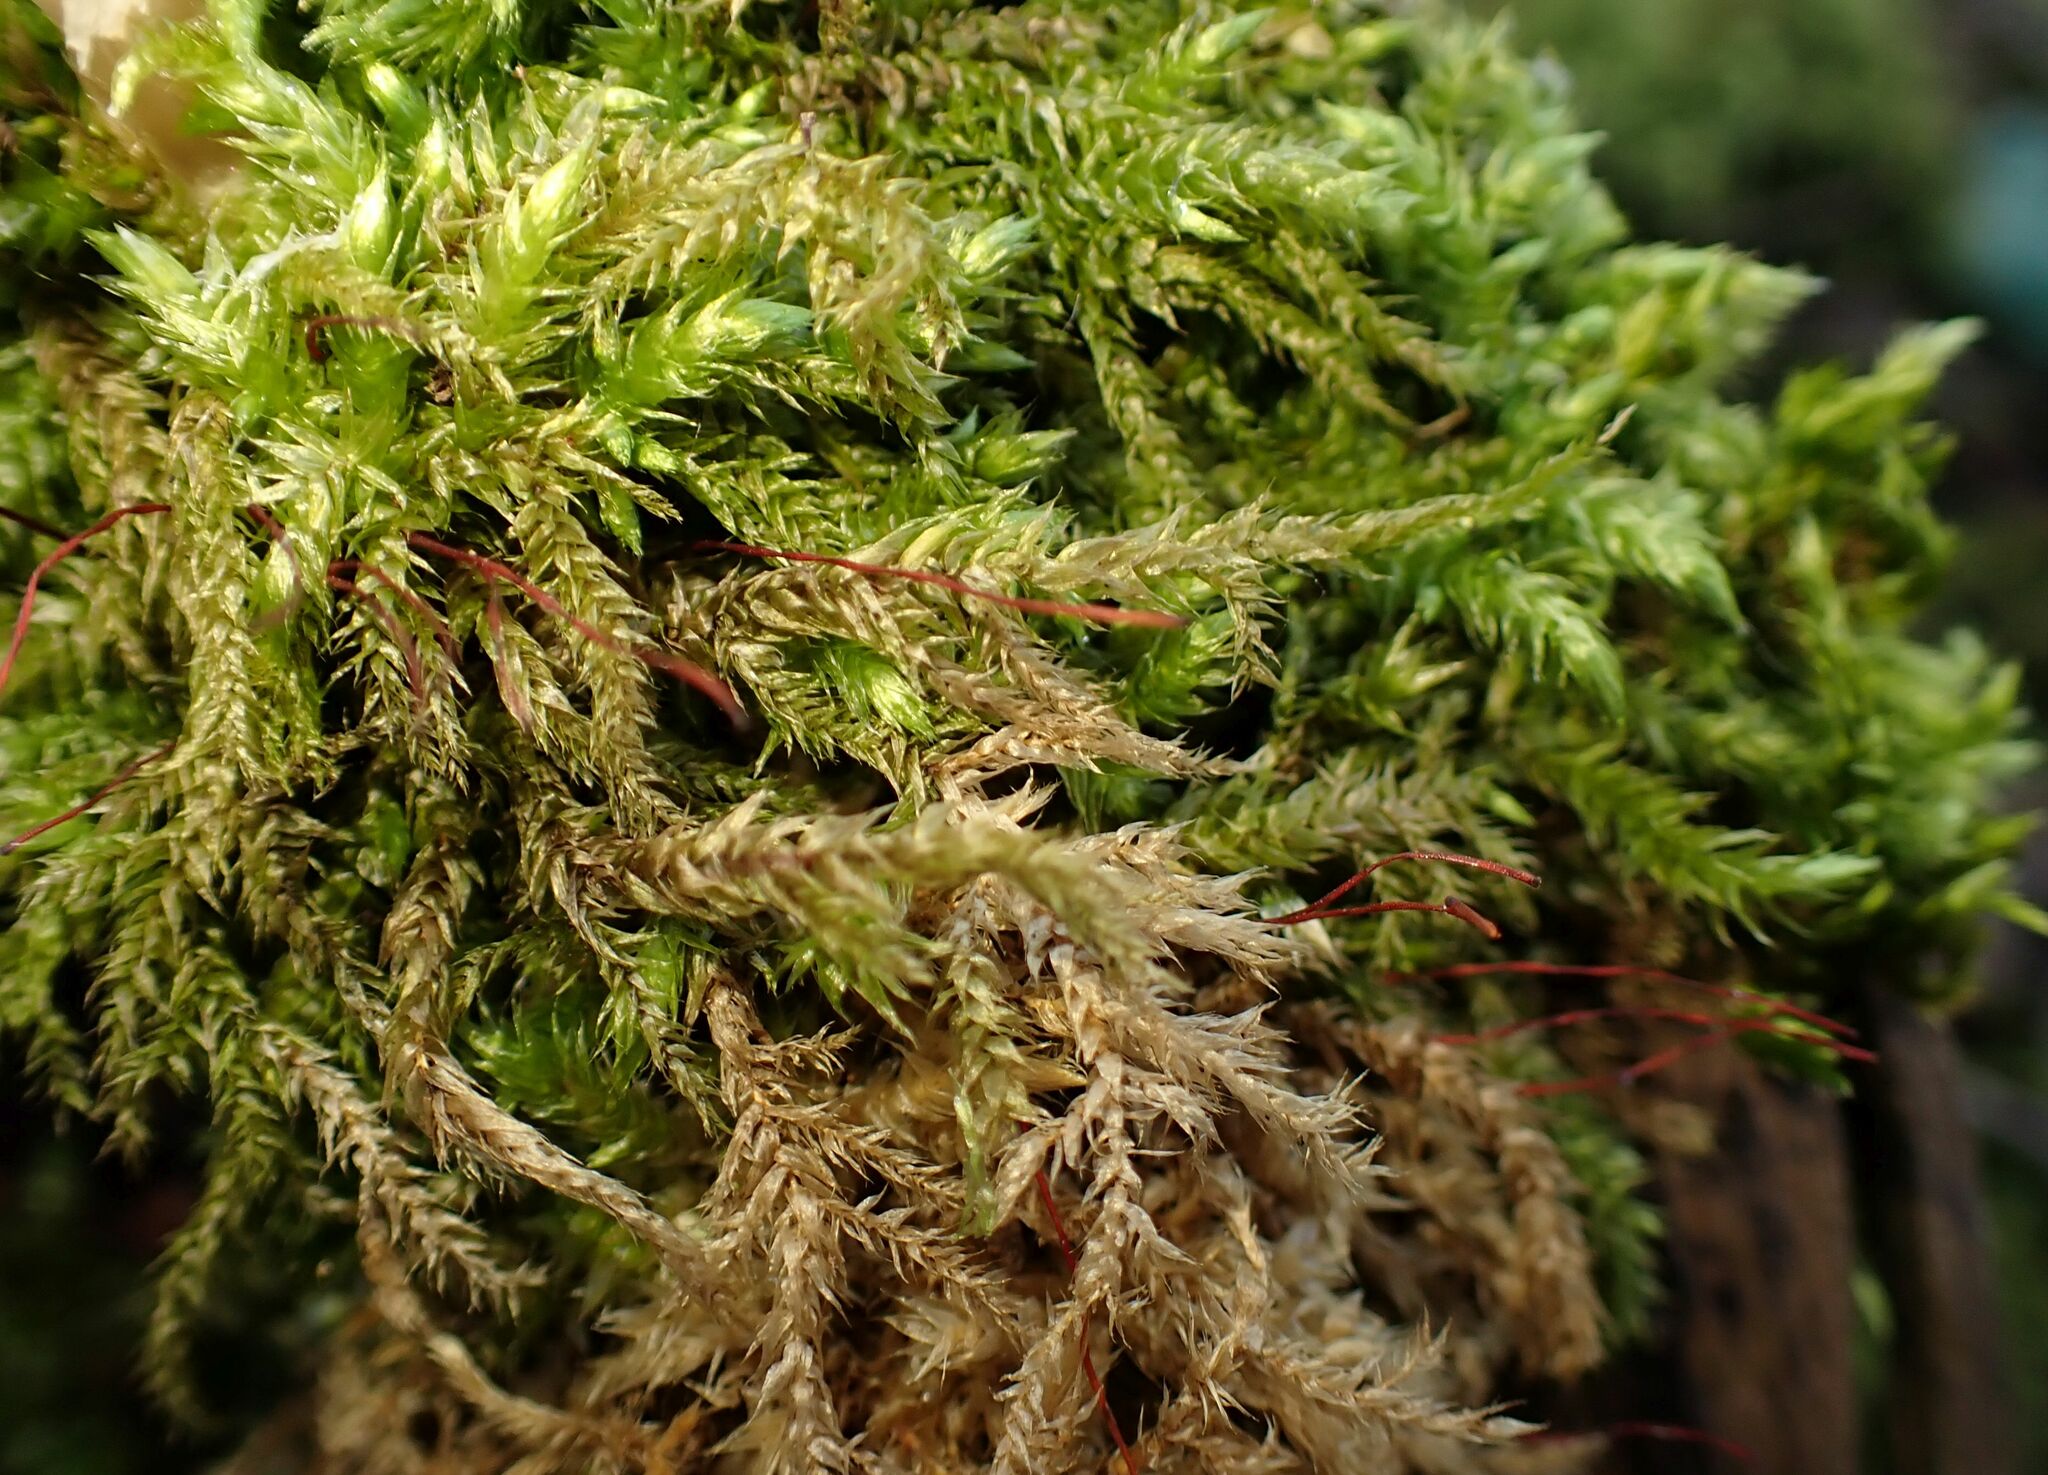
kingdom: Plantae
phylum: Bryophyta
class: Bryopsida
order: Hypnales
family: Brachytheciaceae
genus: Brachythecium
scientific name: Brachythecium rutabulum
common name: Rough-stalked feather-moss
